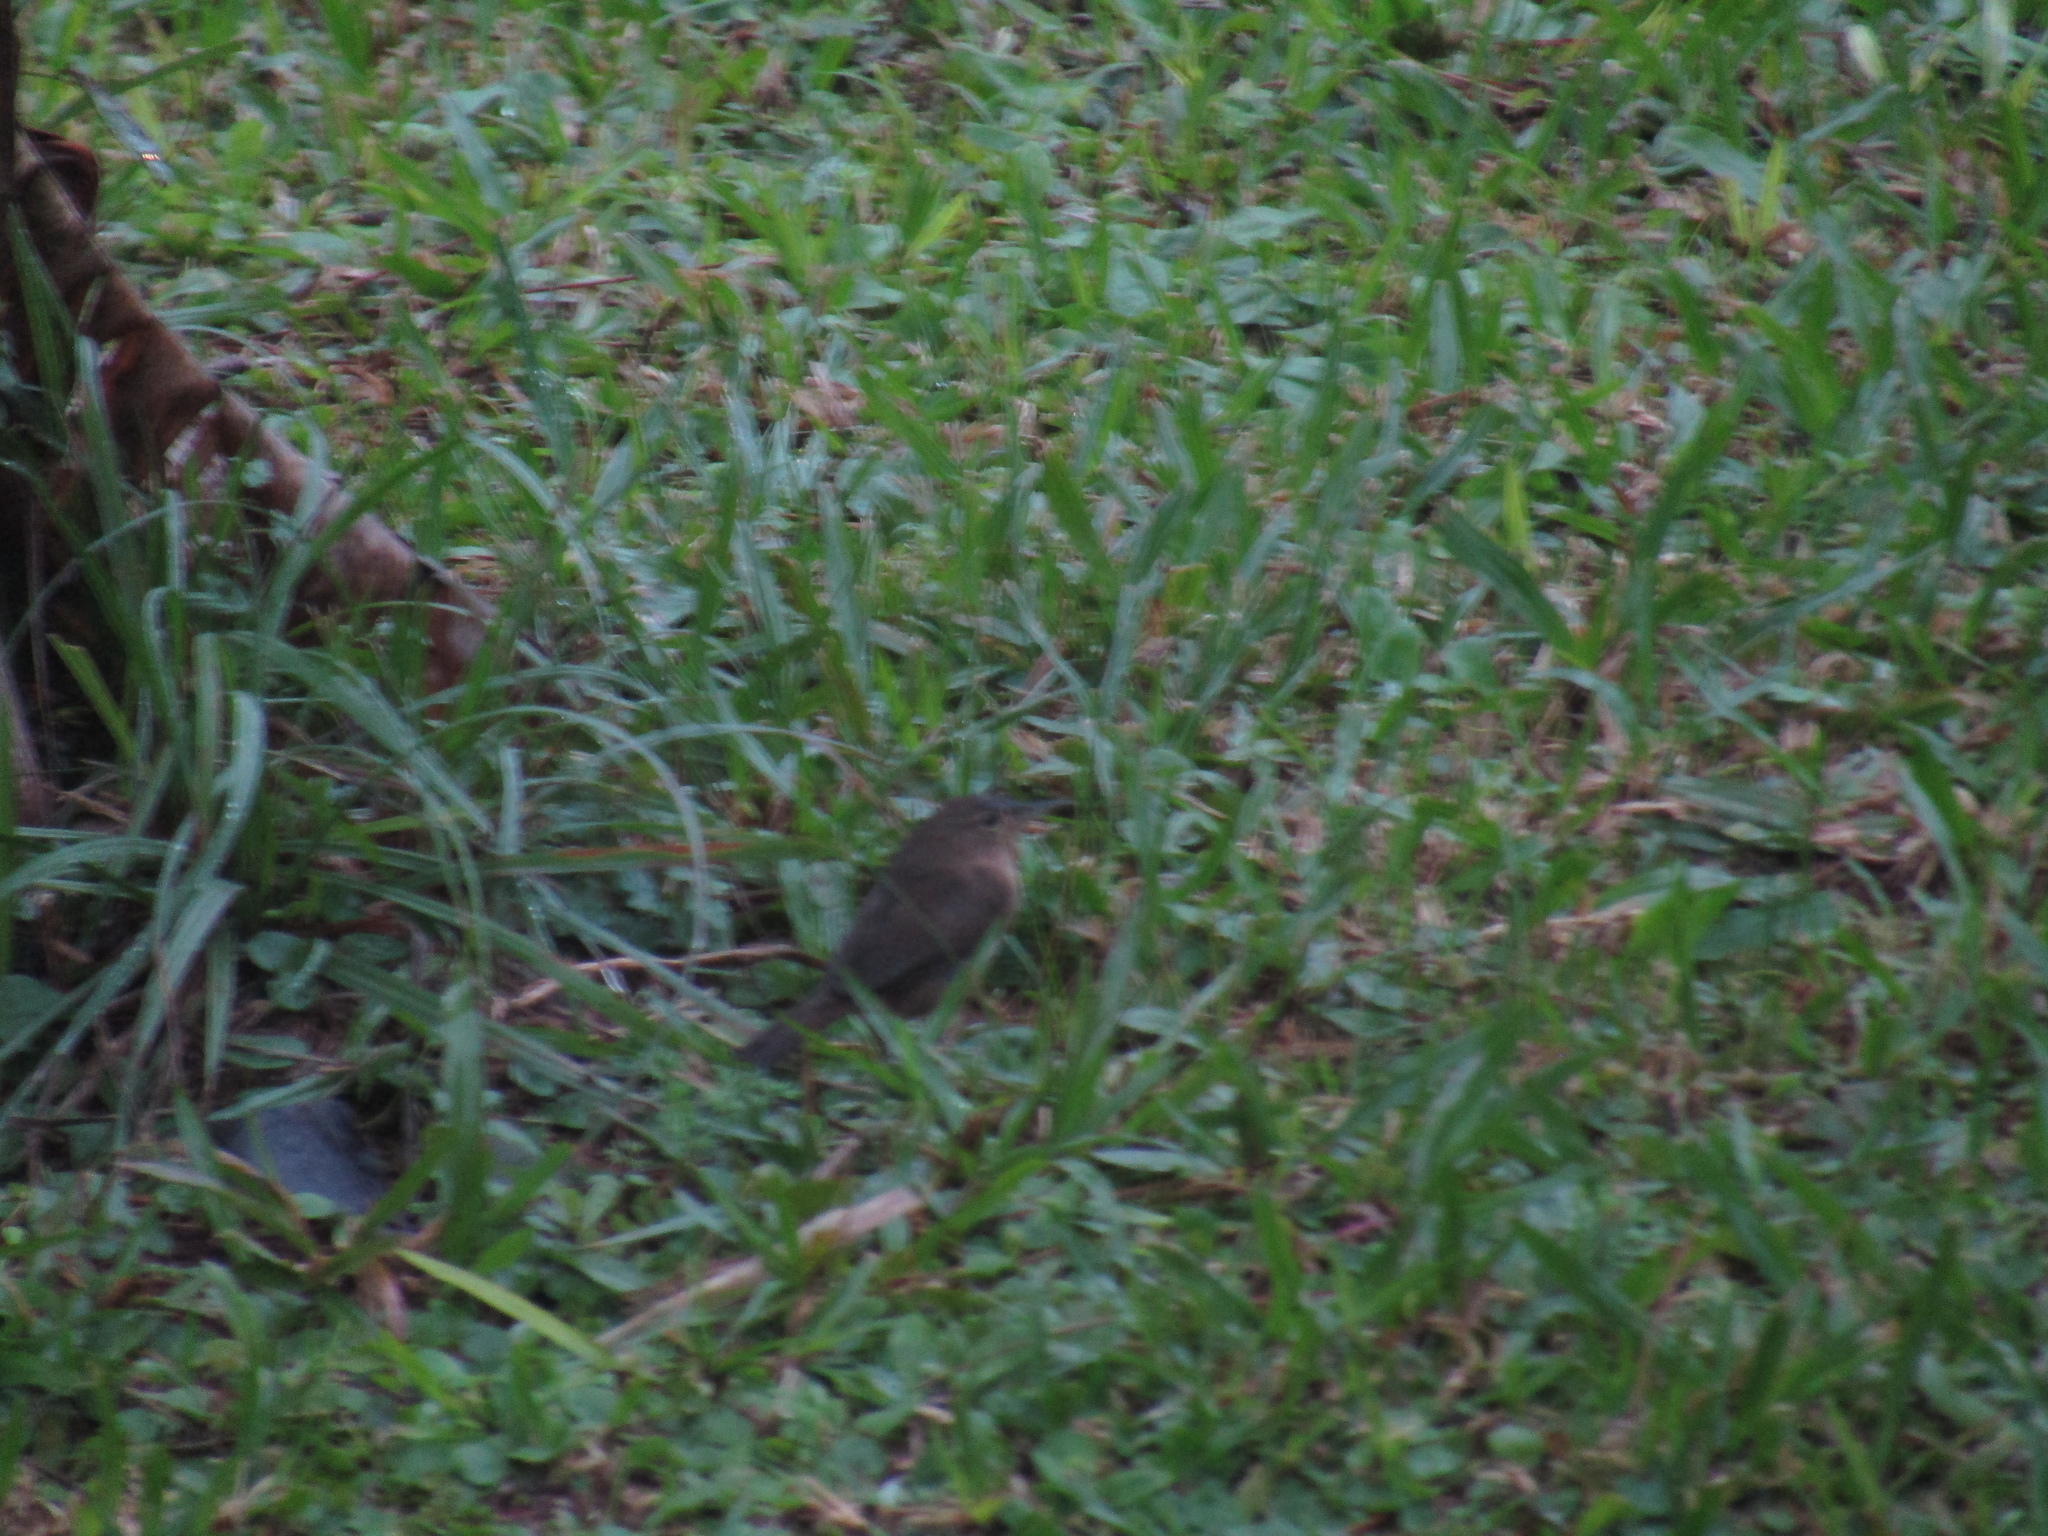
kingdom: Animalia
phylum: Chordata
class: Aves
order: Passeriformes
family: Troglodytidae
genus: Troglodytes
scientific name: Troglodytes aedon
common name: House wren
